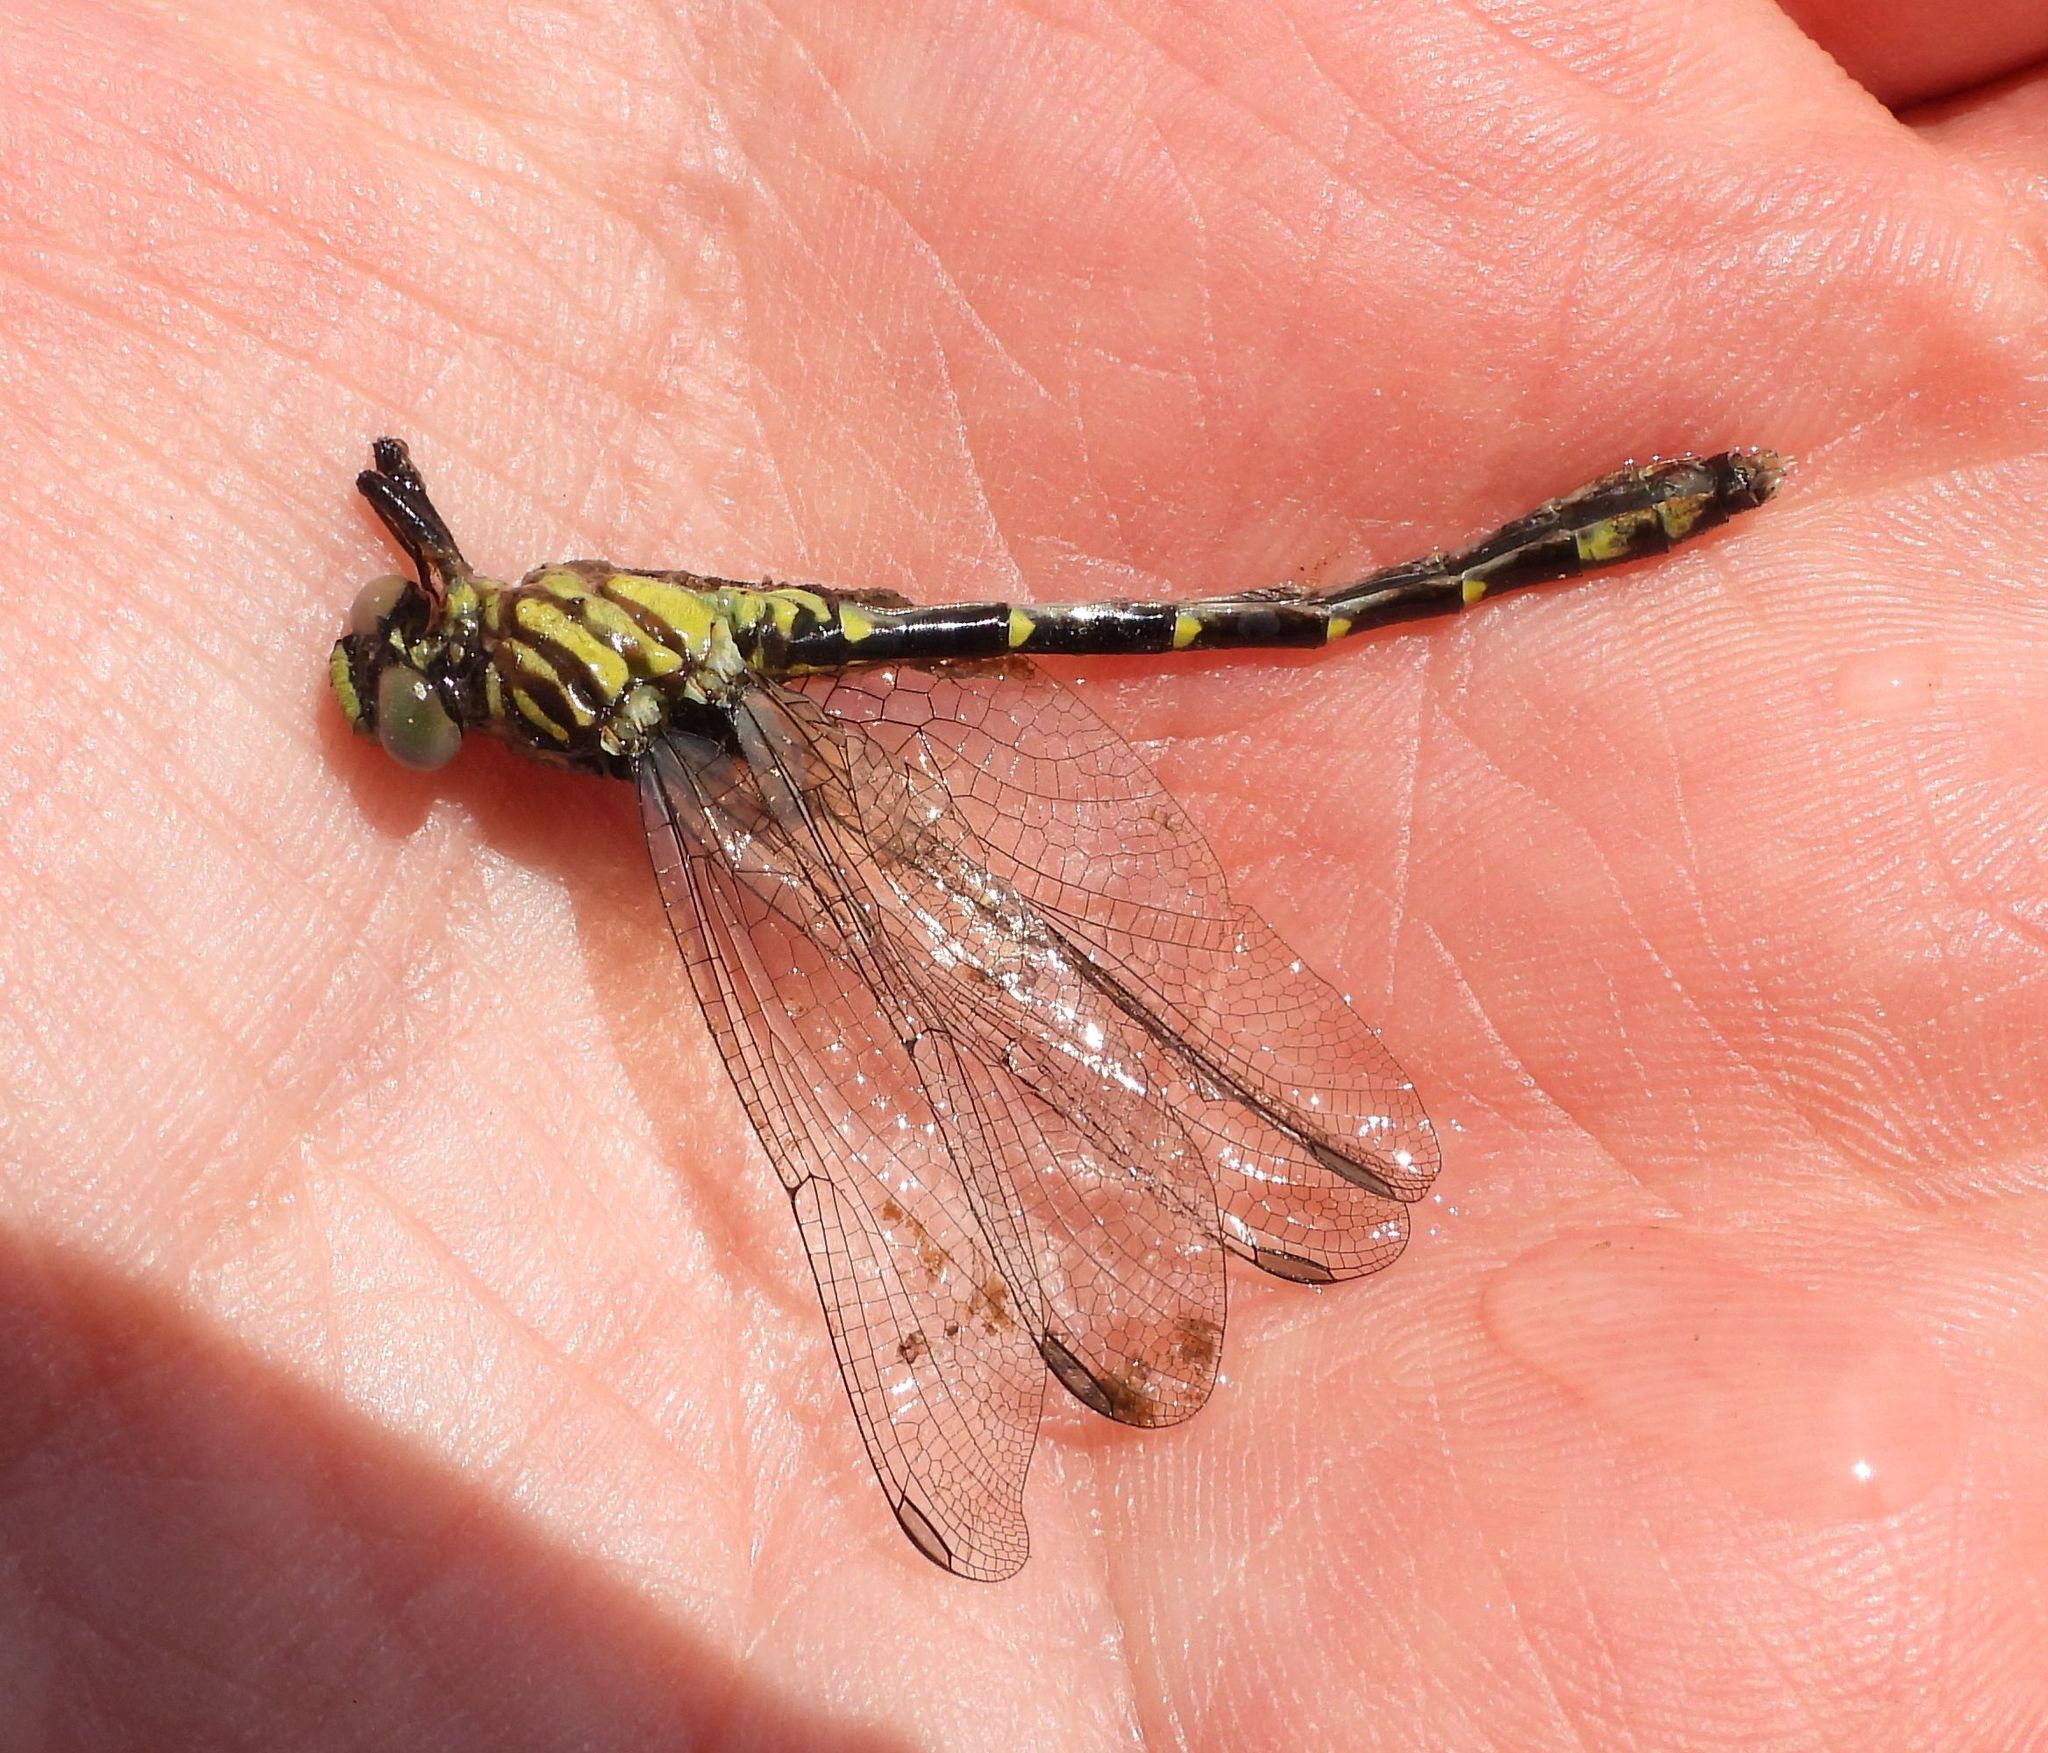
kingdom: Animalia
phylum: Arthropoda
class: Insecta
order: Odonata
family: Gomphidae
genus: Stylogomphus
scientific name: Stylogomphus albistylus
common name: Eastern least clubtail
